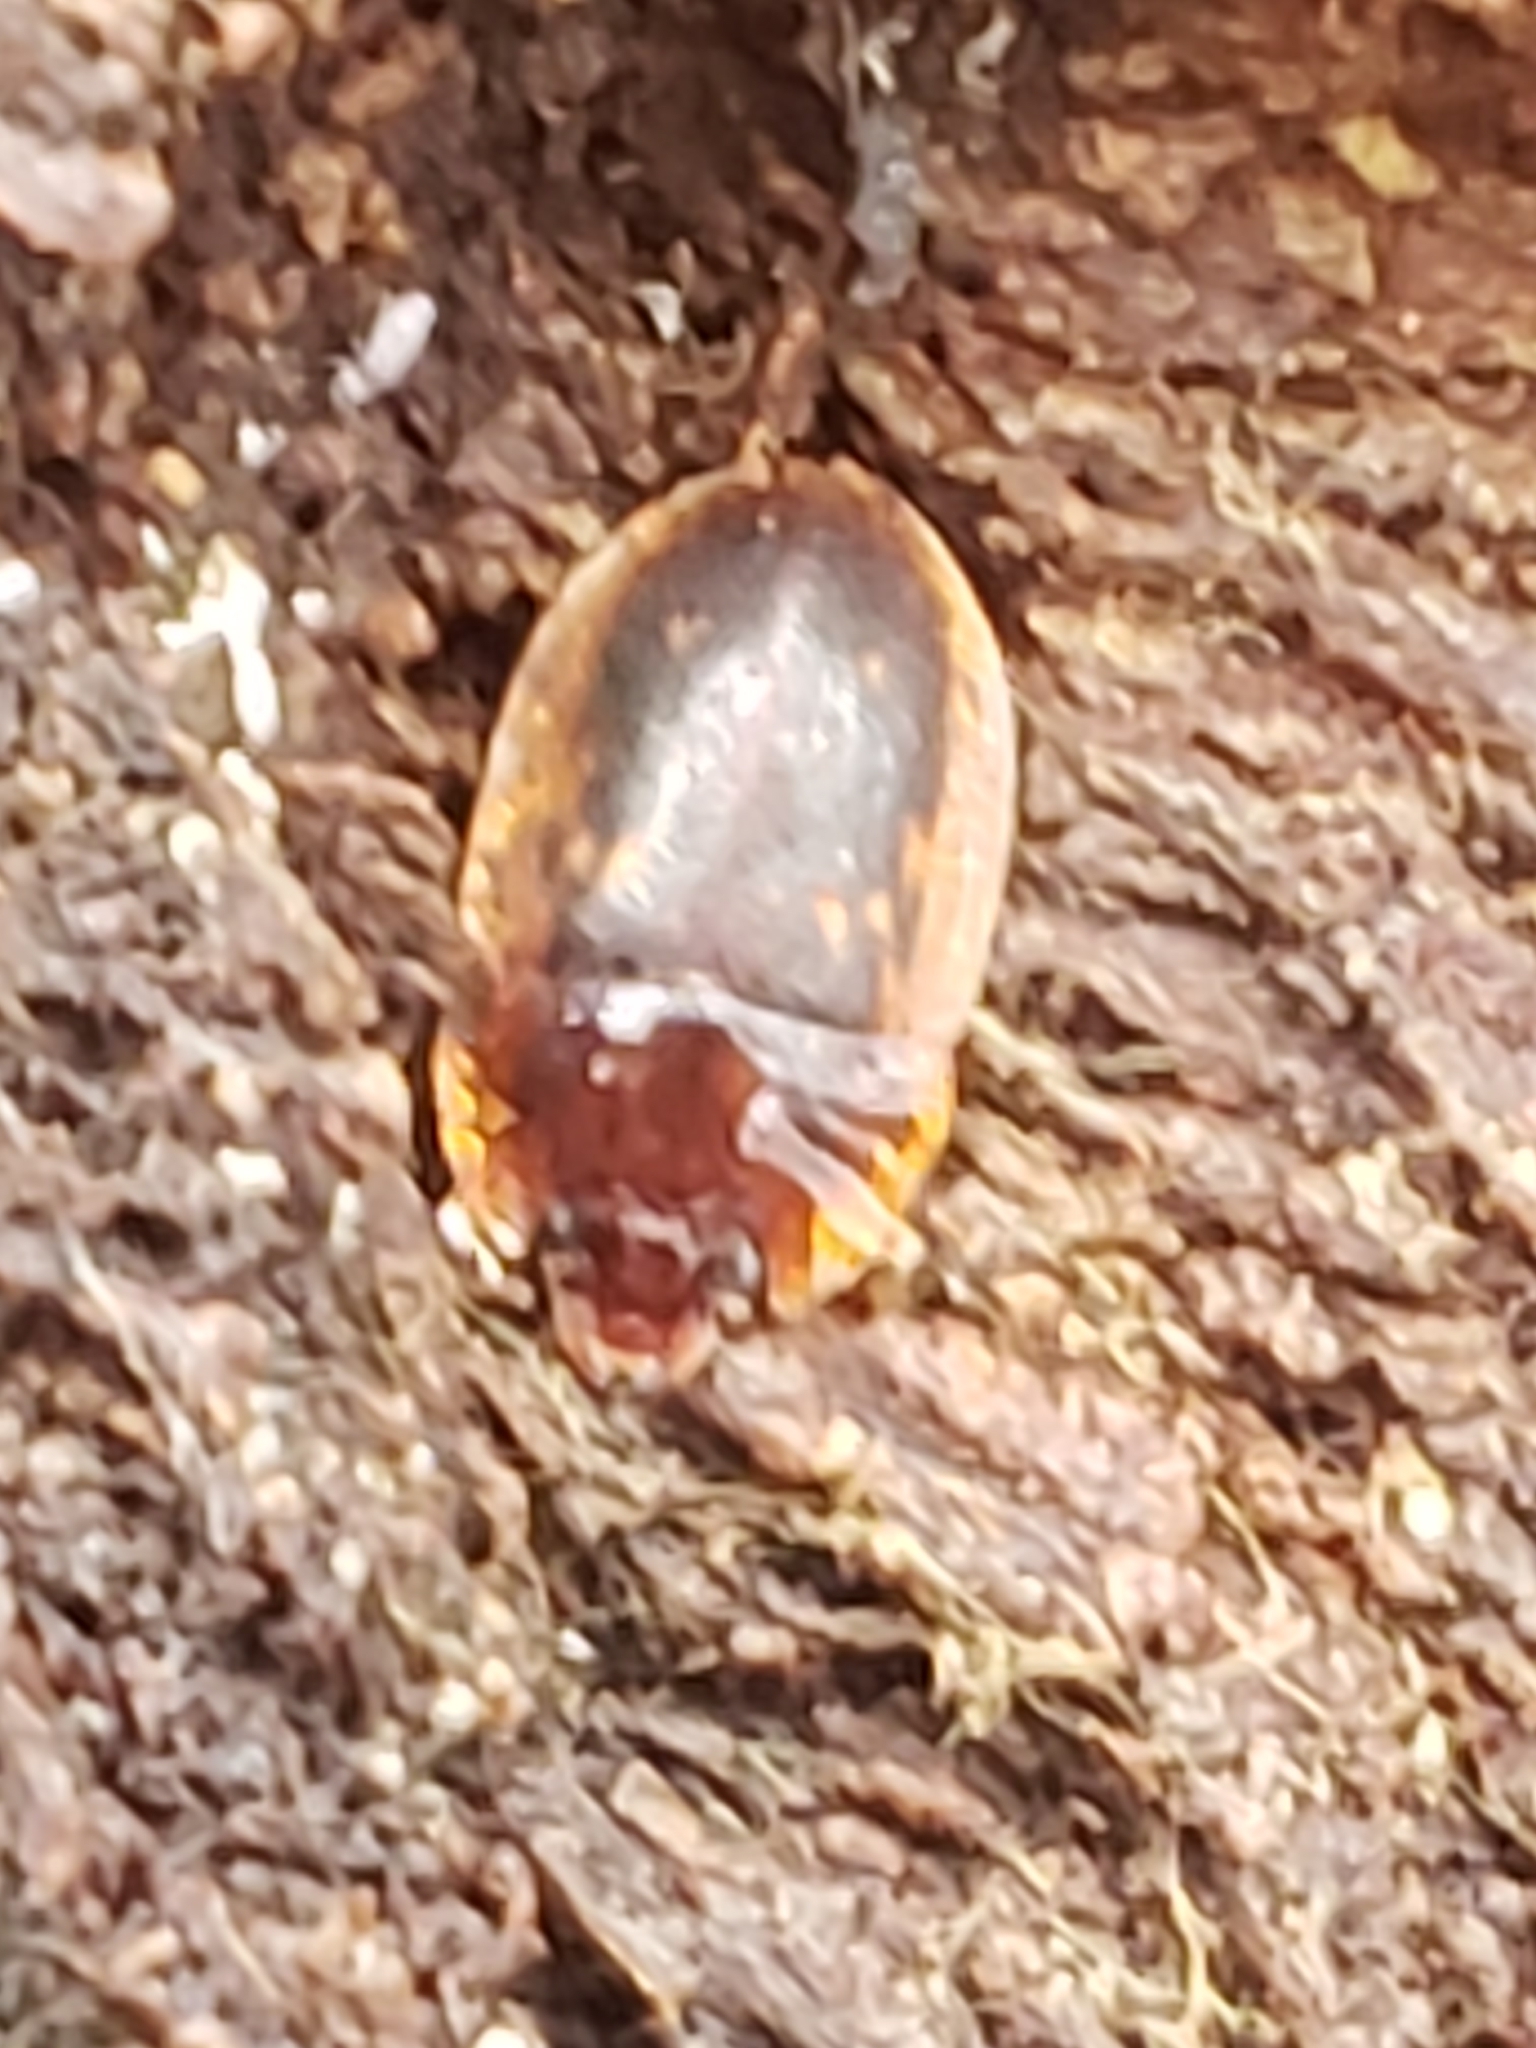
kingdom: Animalia
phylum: Arthropoda
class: Insecta
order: Coleoptera
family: Nitidulidae
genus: Prometopia
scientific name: Prometopia sexmaculata
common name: Six-spotted sap-feeding beetle
